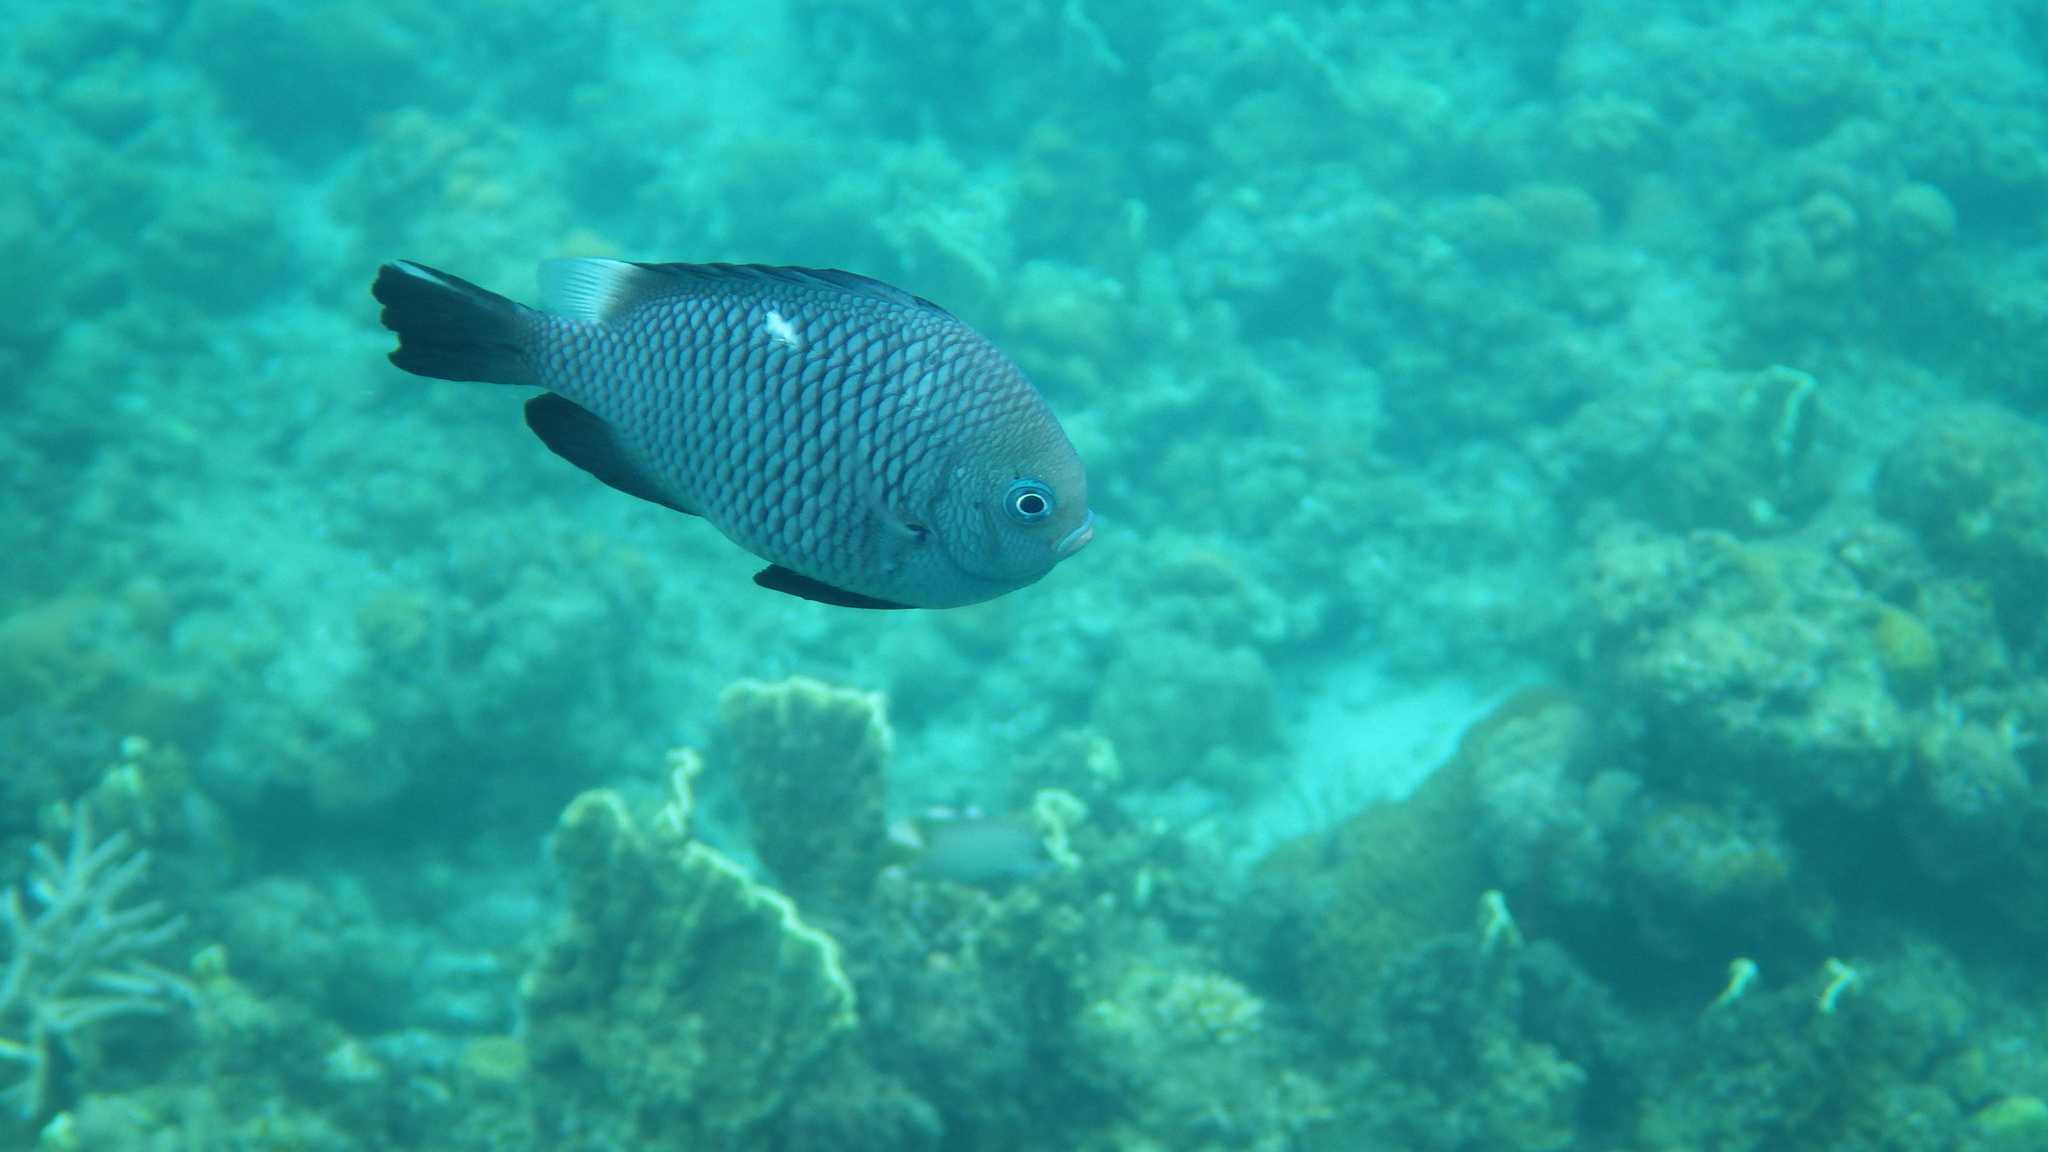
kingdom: Animalia
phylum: Chordata
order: Perciformes
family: Pomacentridae
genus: Dascyllus
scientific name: Dascyllus trimaculatus
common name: Threespot dascyllus
